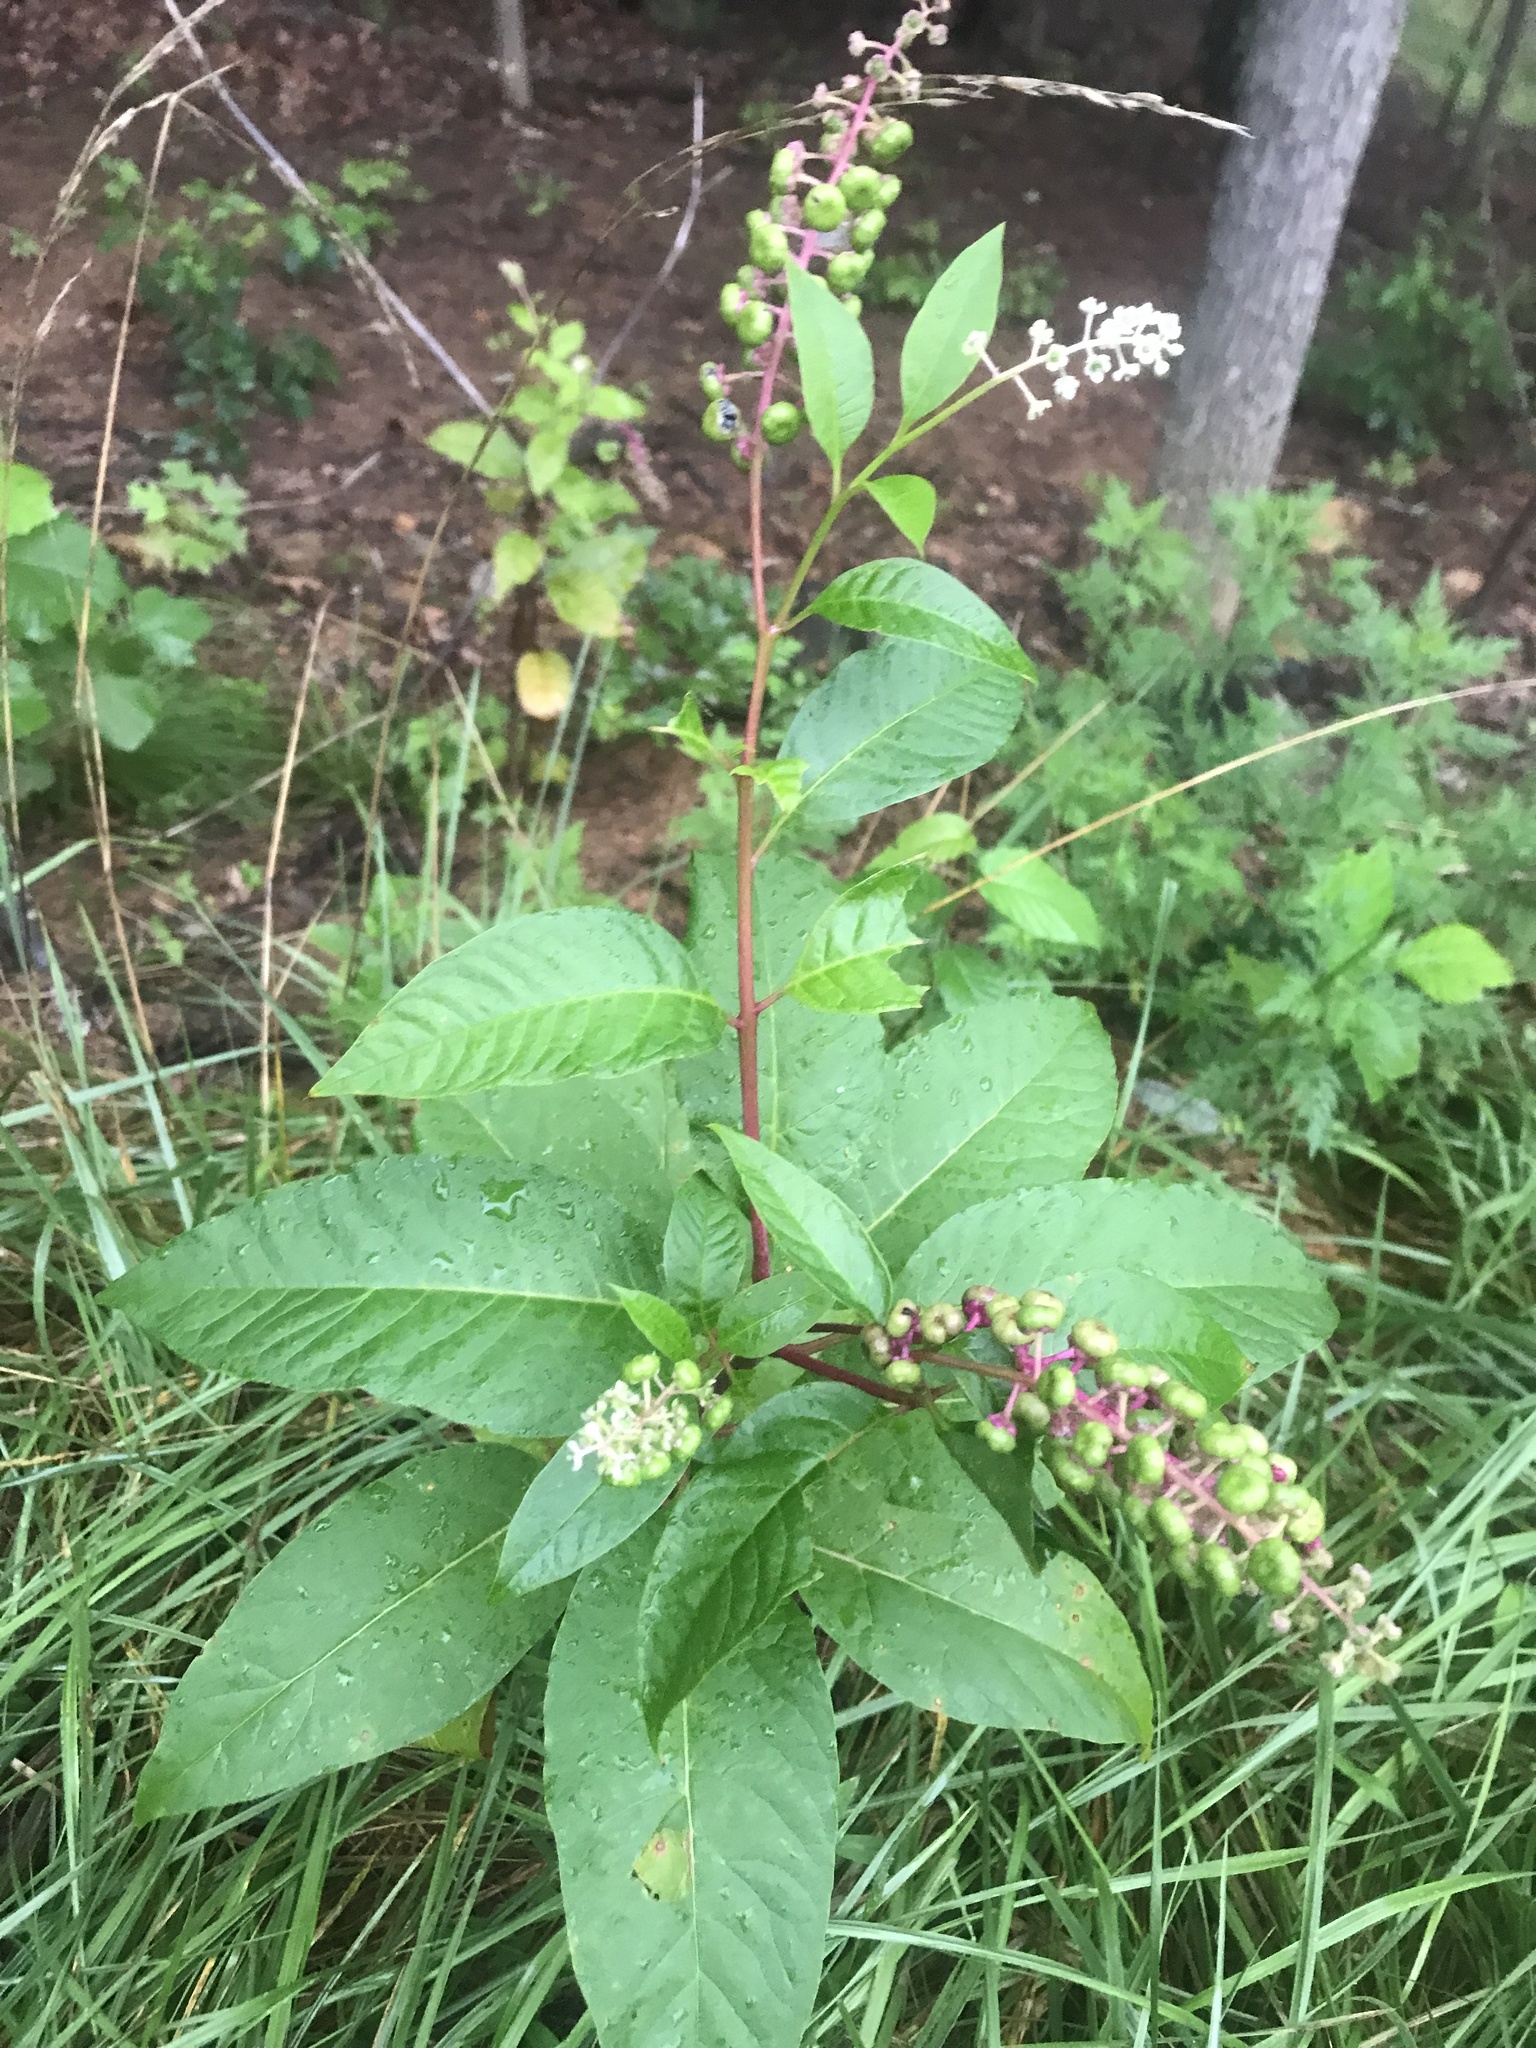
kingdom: Plantae
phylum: Tracheophyta
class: Magnoliopsida
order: Caryophyllales
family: Phytolaccaceae
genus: Phytolacca
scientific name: Phytolacca americana
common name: American pokeweed
